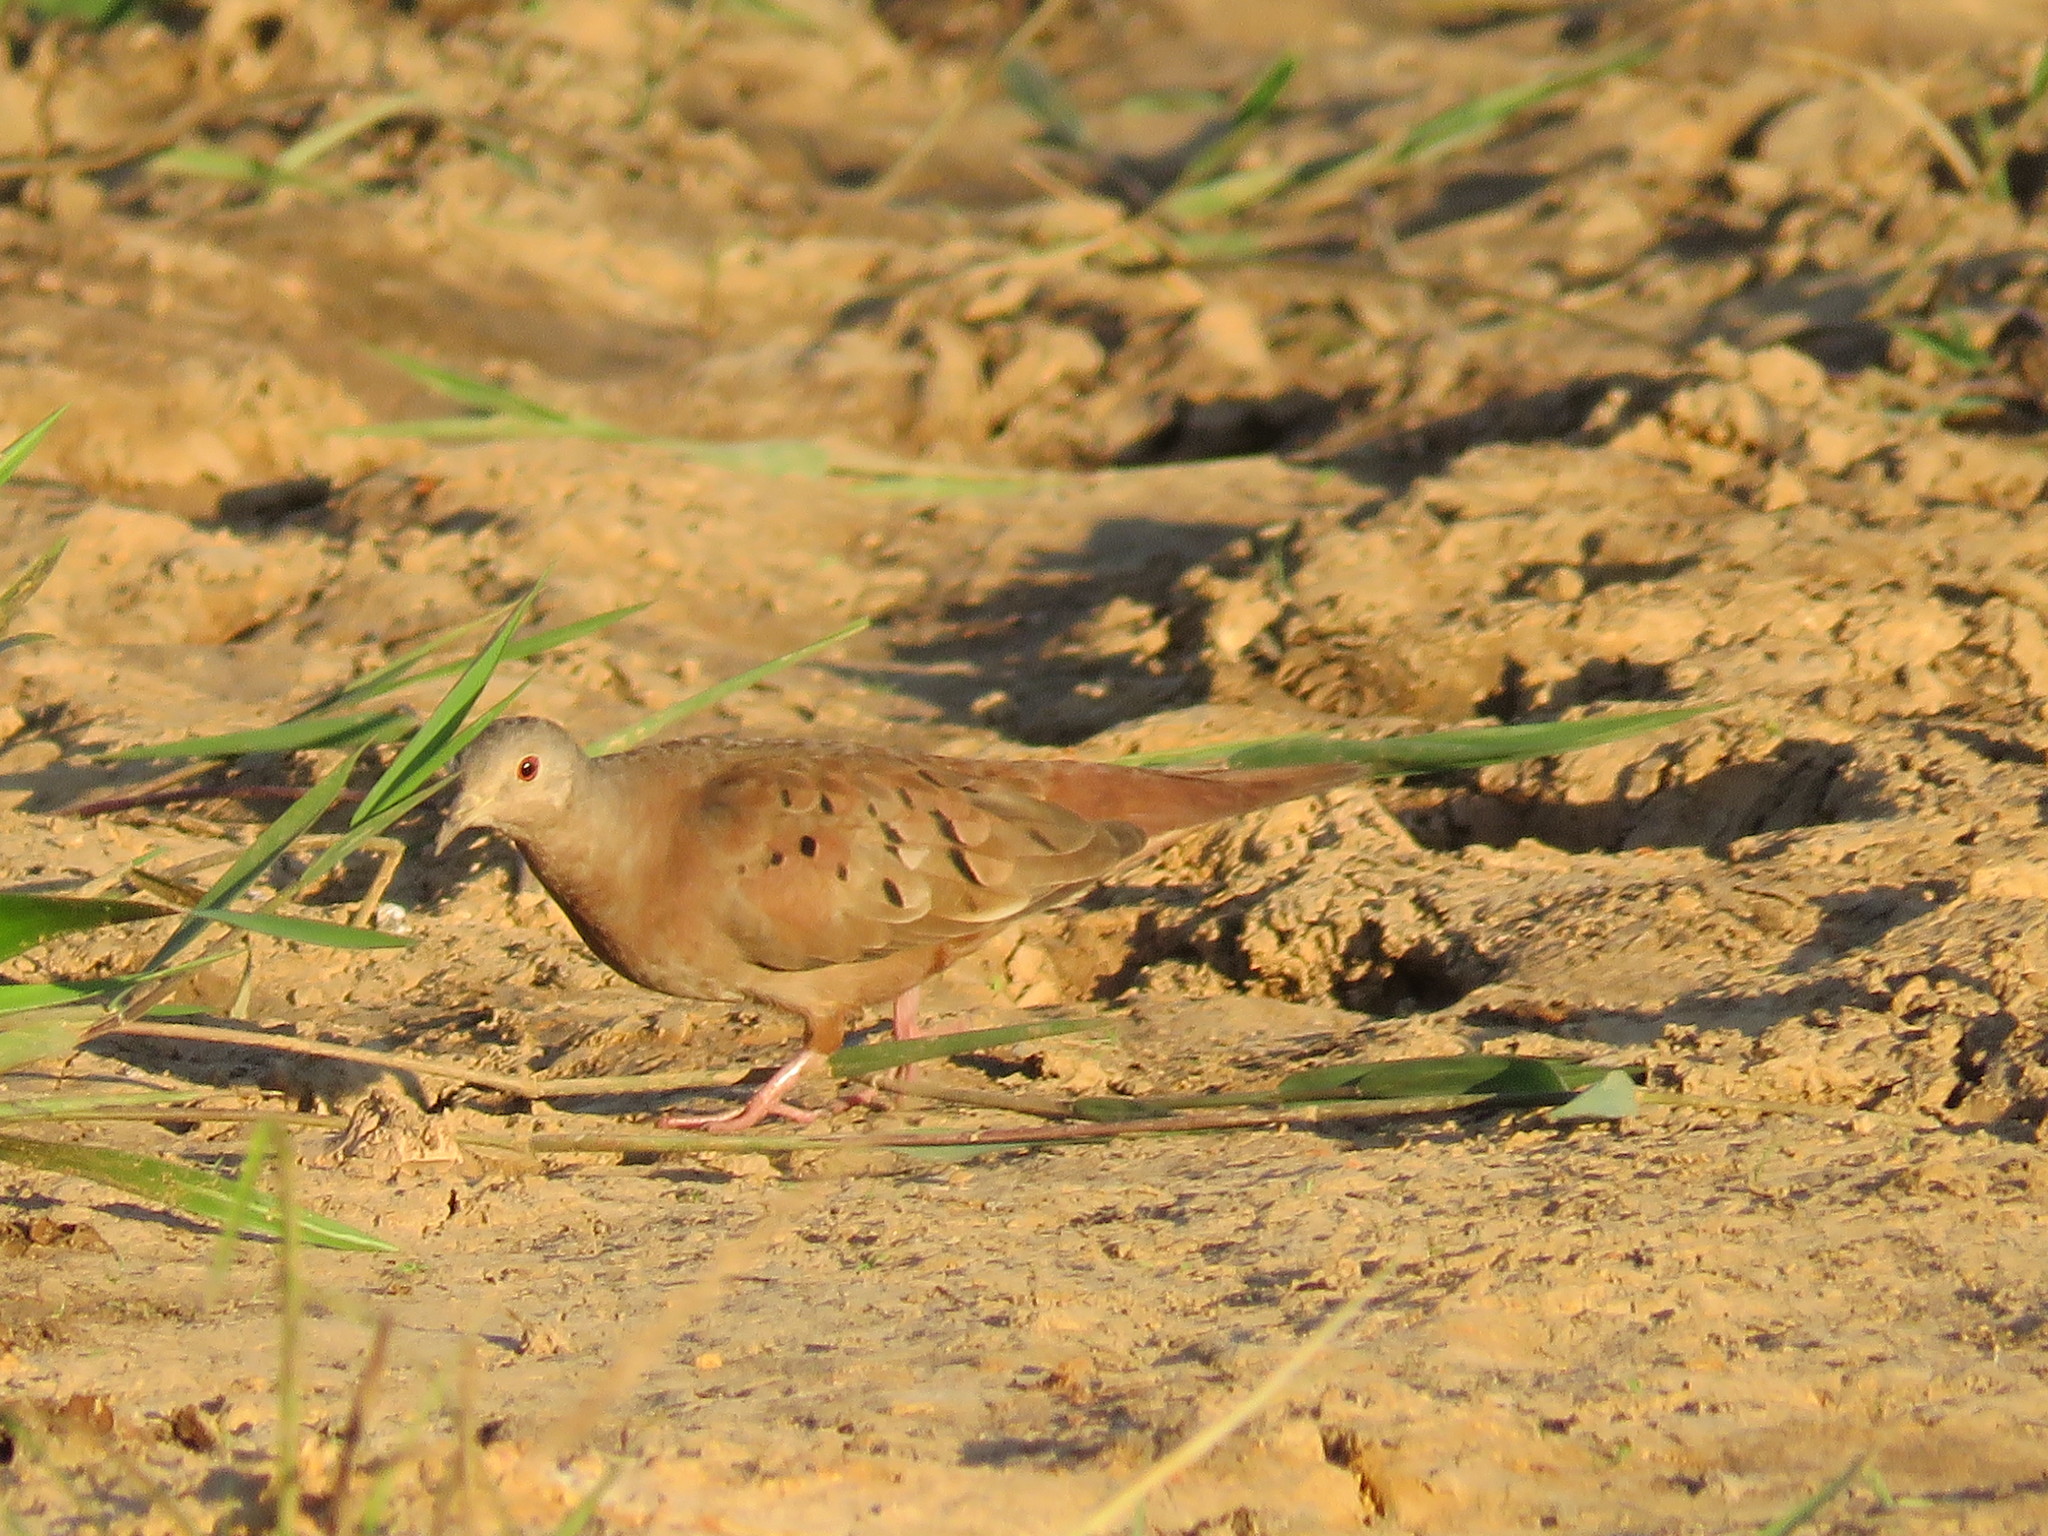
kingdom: Animalia
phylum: Chordata
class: Aves
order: Columbiformes
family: Columbidae
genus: Columbina
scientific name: Columbina talpacoti
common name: Ruddy ground dove
